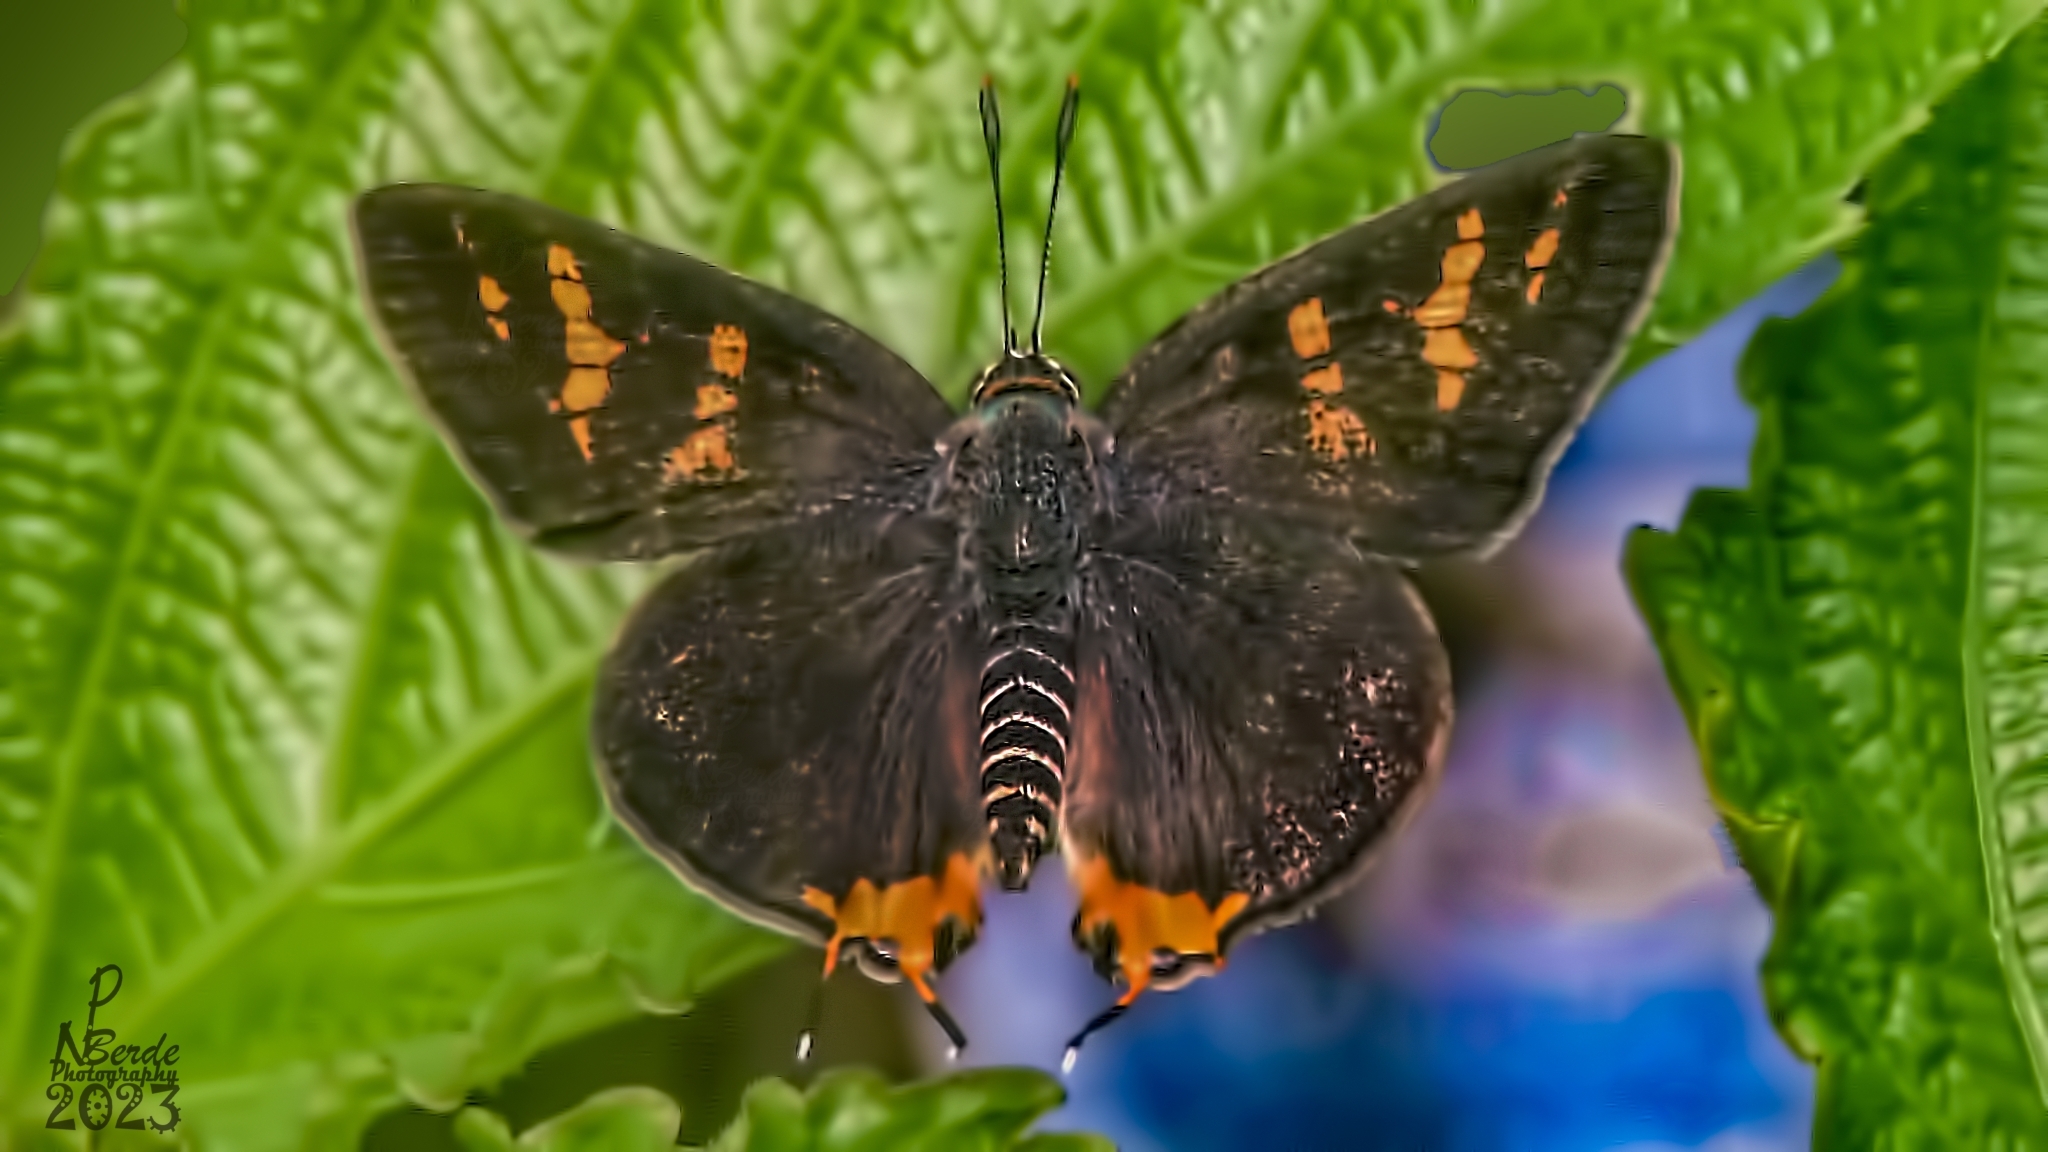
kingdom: Animalia
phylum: Arthropoda
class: Insecta
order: Lepidoptera
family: Lycaenidae
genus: Cigaritis
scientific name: Cigaritis vulcanus
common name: Common silverline
